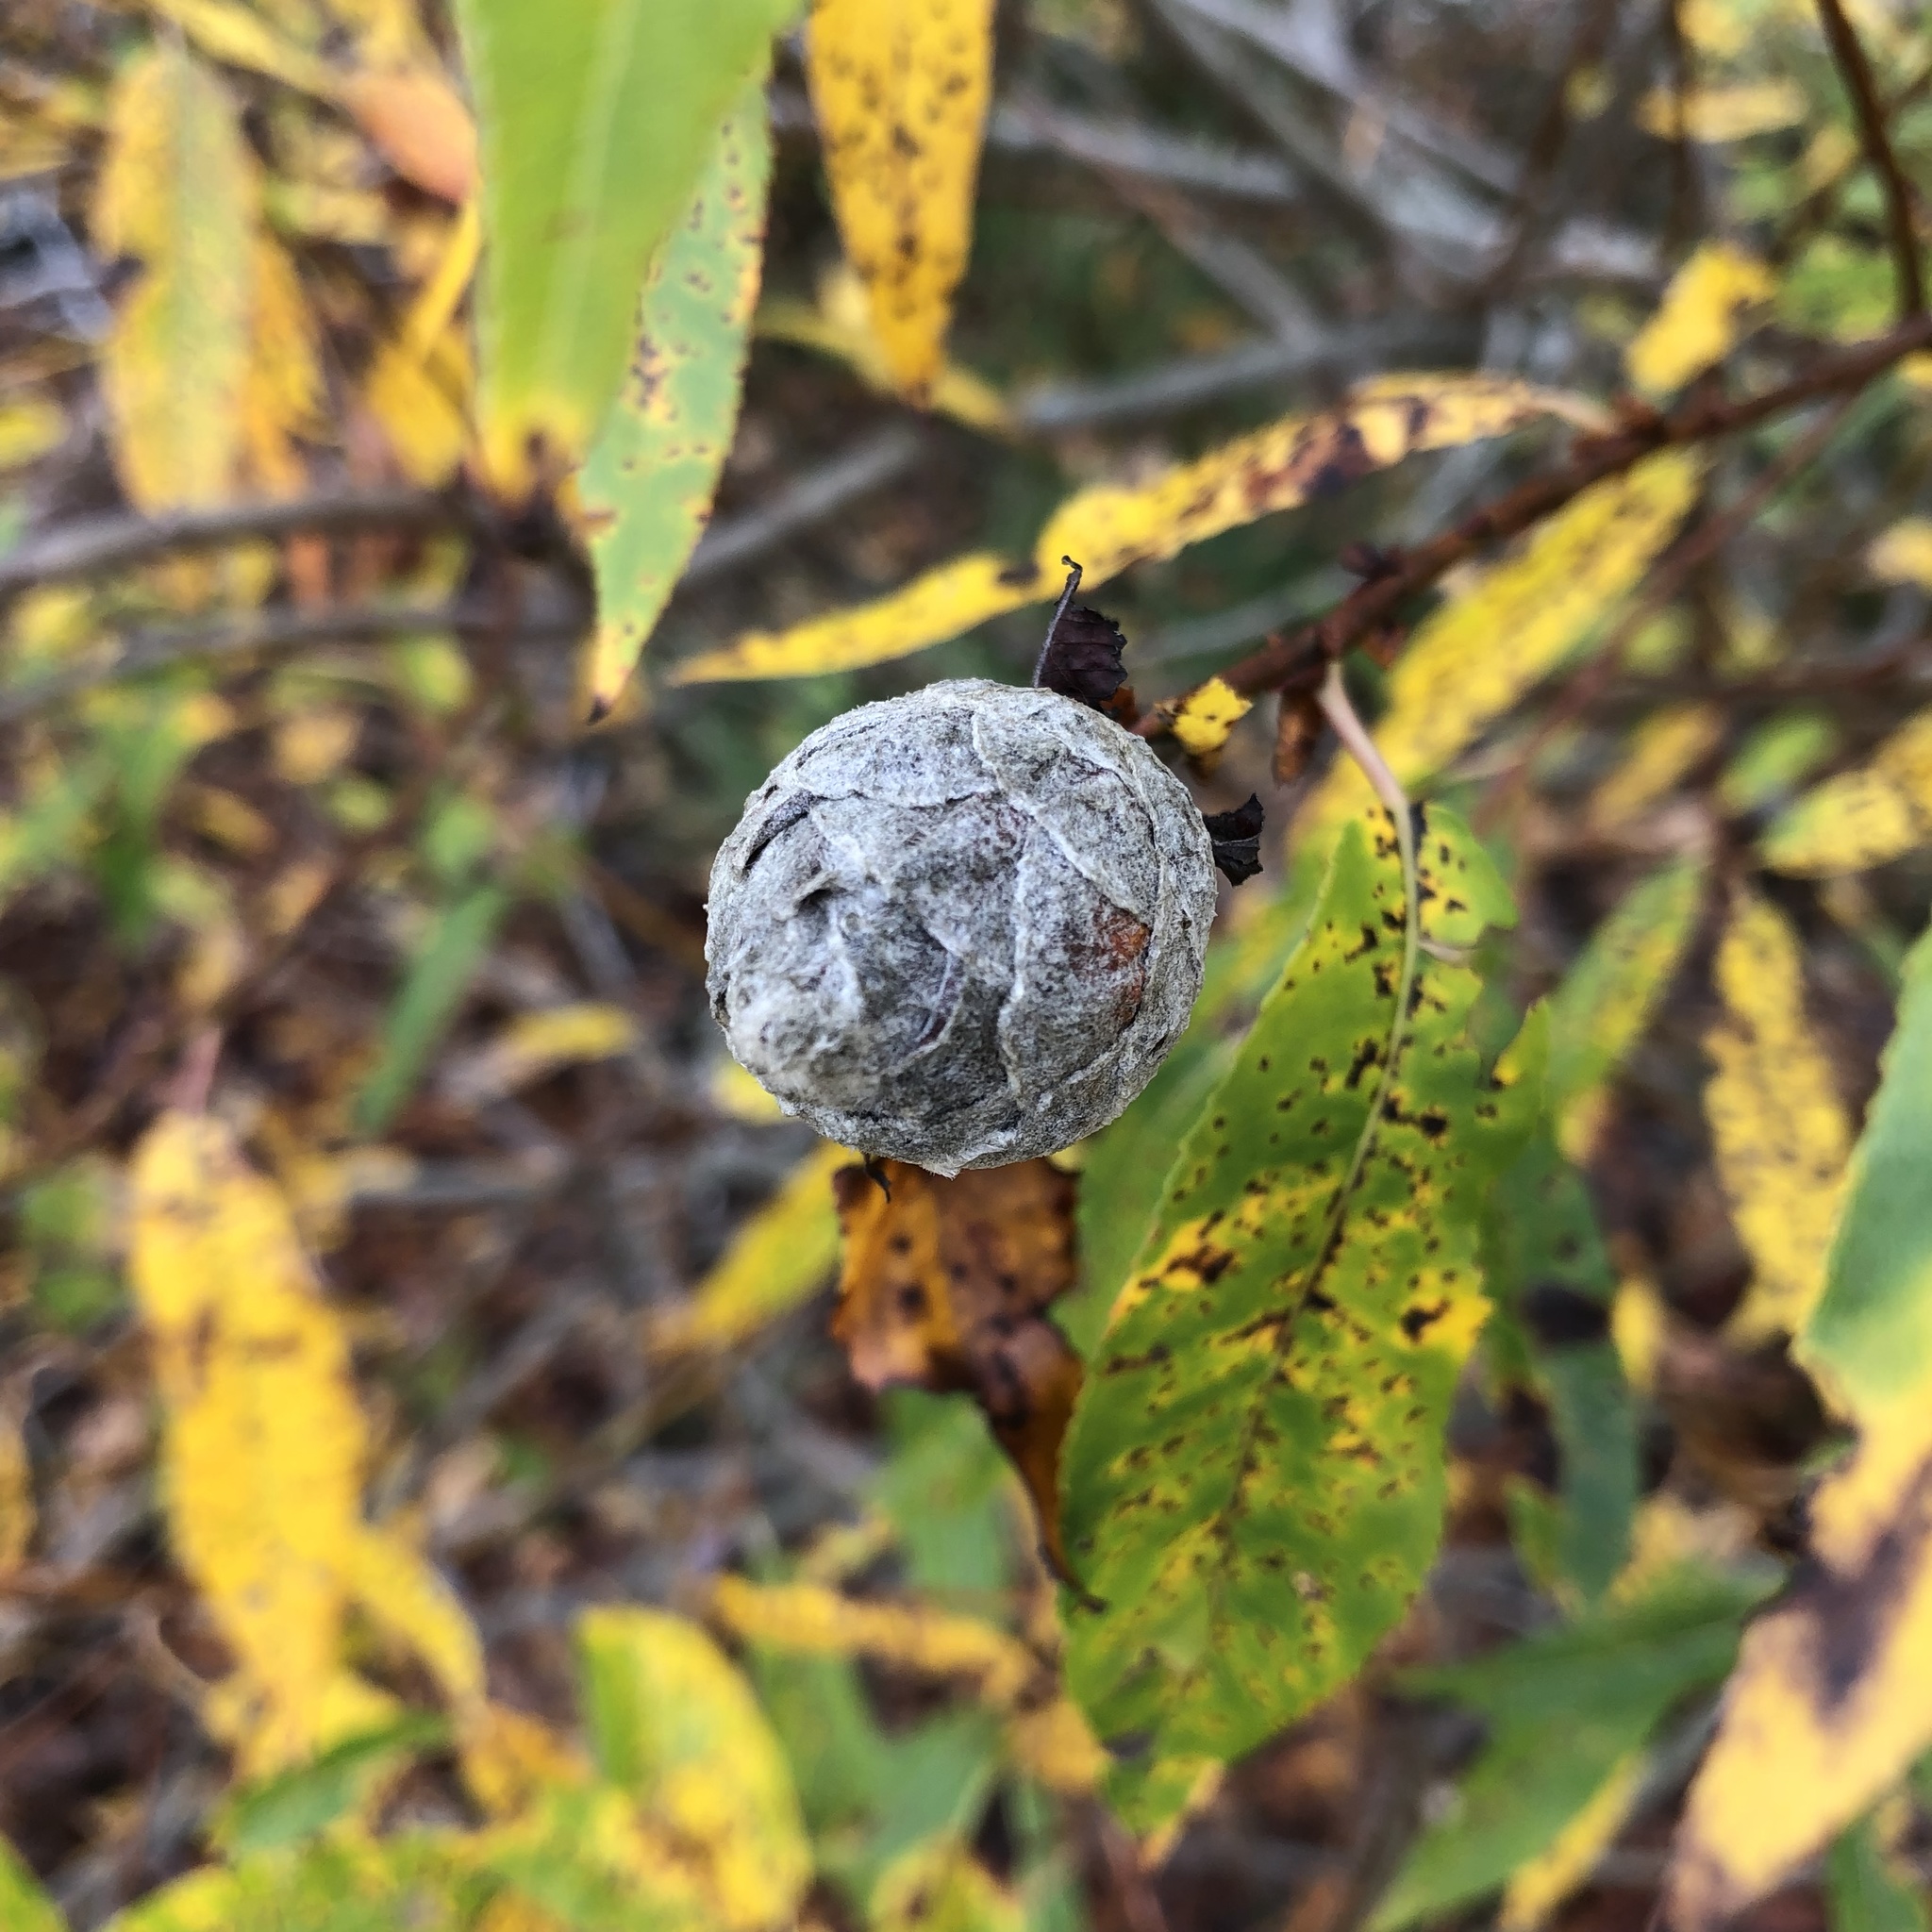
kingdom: Animalia
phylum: Arthropoda
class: Insecta
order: Diptera
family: Cecidomyiidae
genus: Rabdophaga
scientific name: Rabdophaga strobiloides
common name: Willow pinecone gall midge
